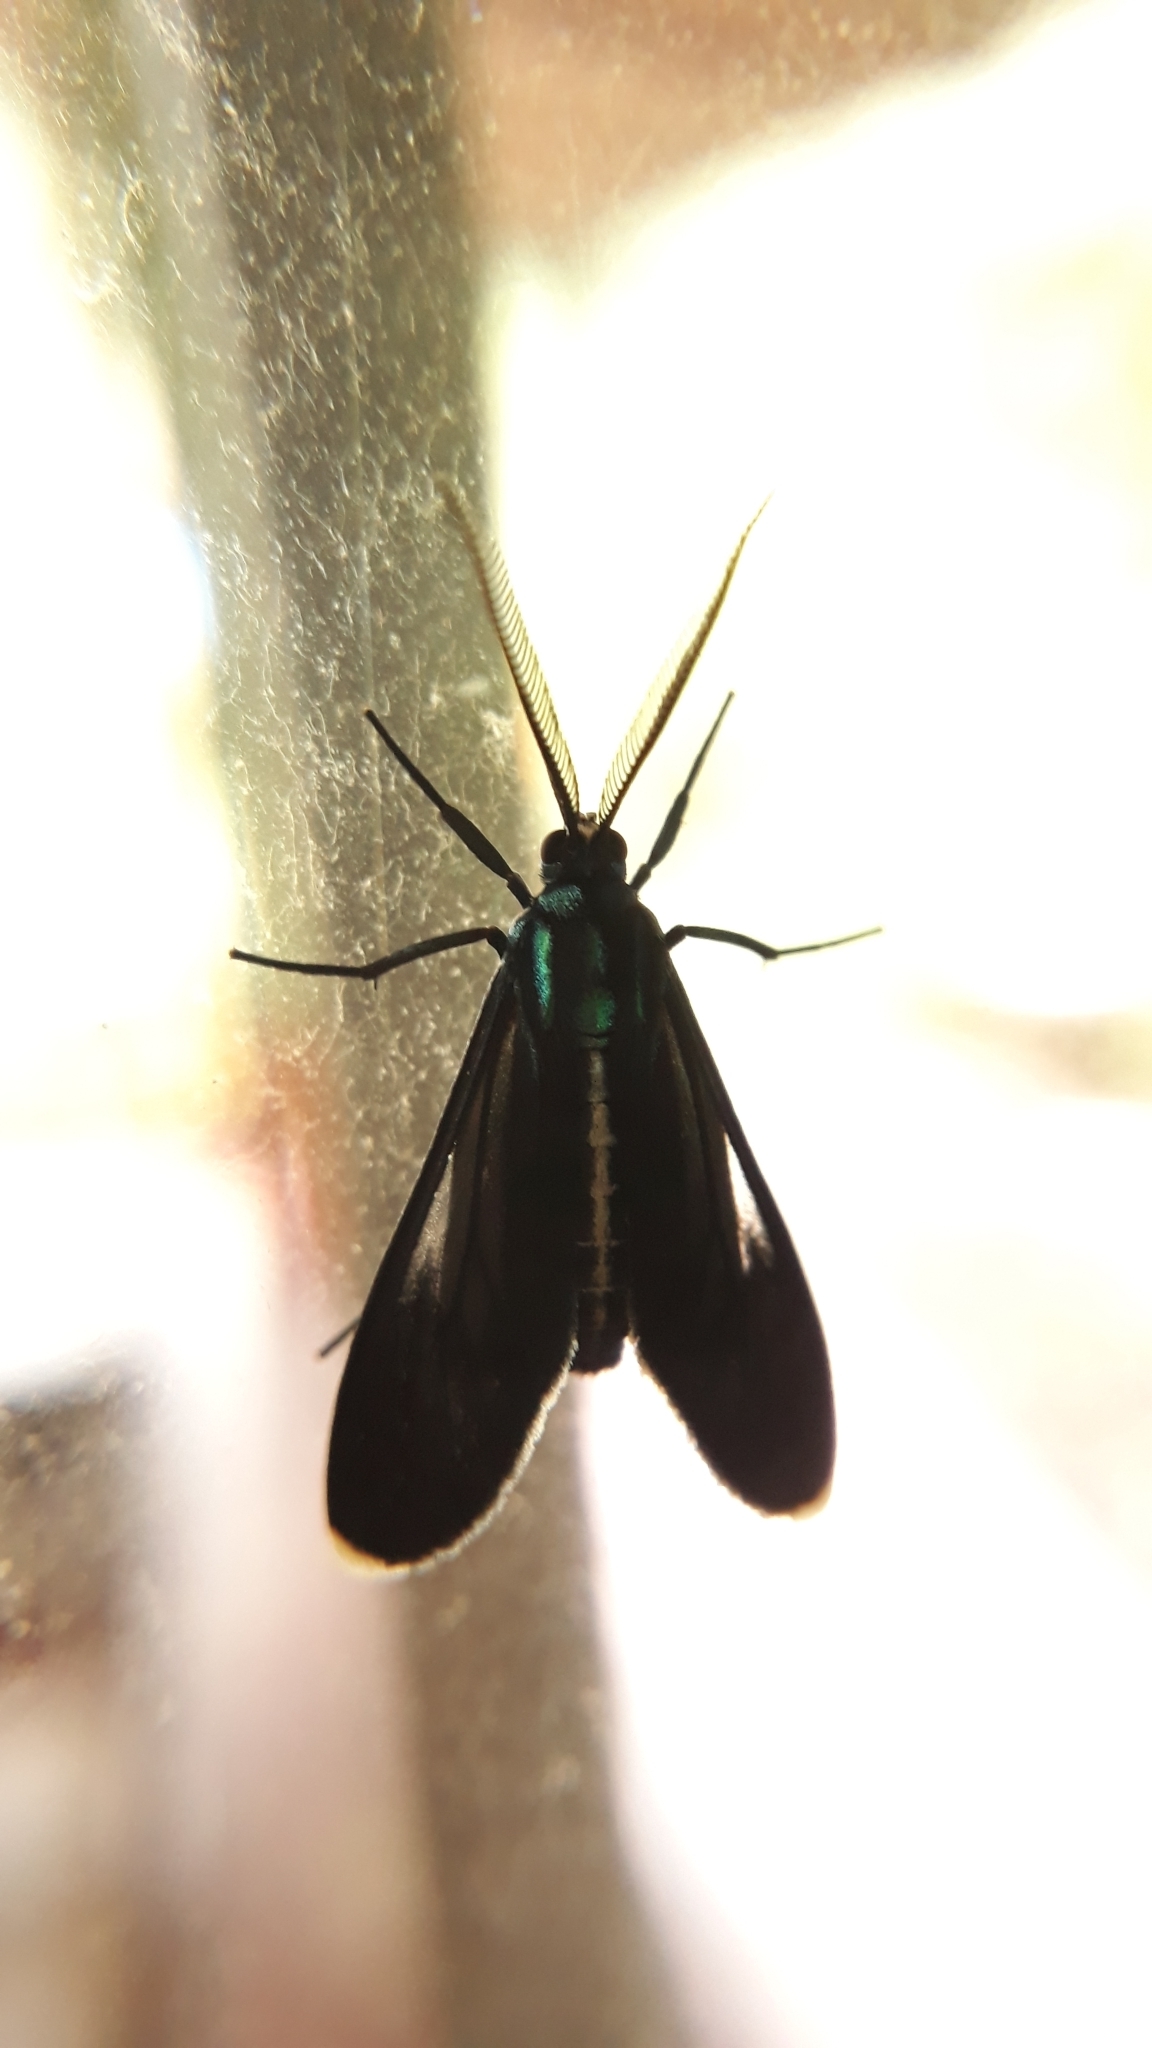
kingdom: Animalia
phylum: Arthropoda
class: Insecta
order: Lepidoptera
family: Erebidae
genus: Uranophora
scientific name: Uranophora leucotela
